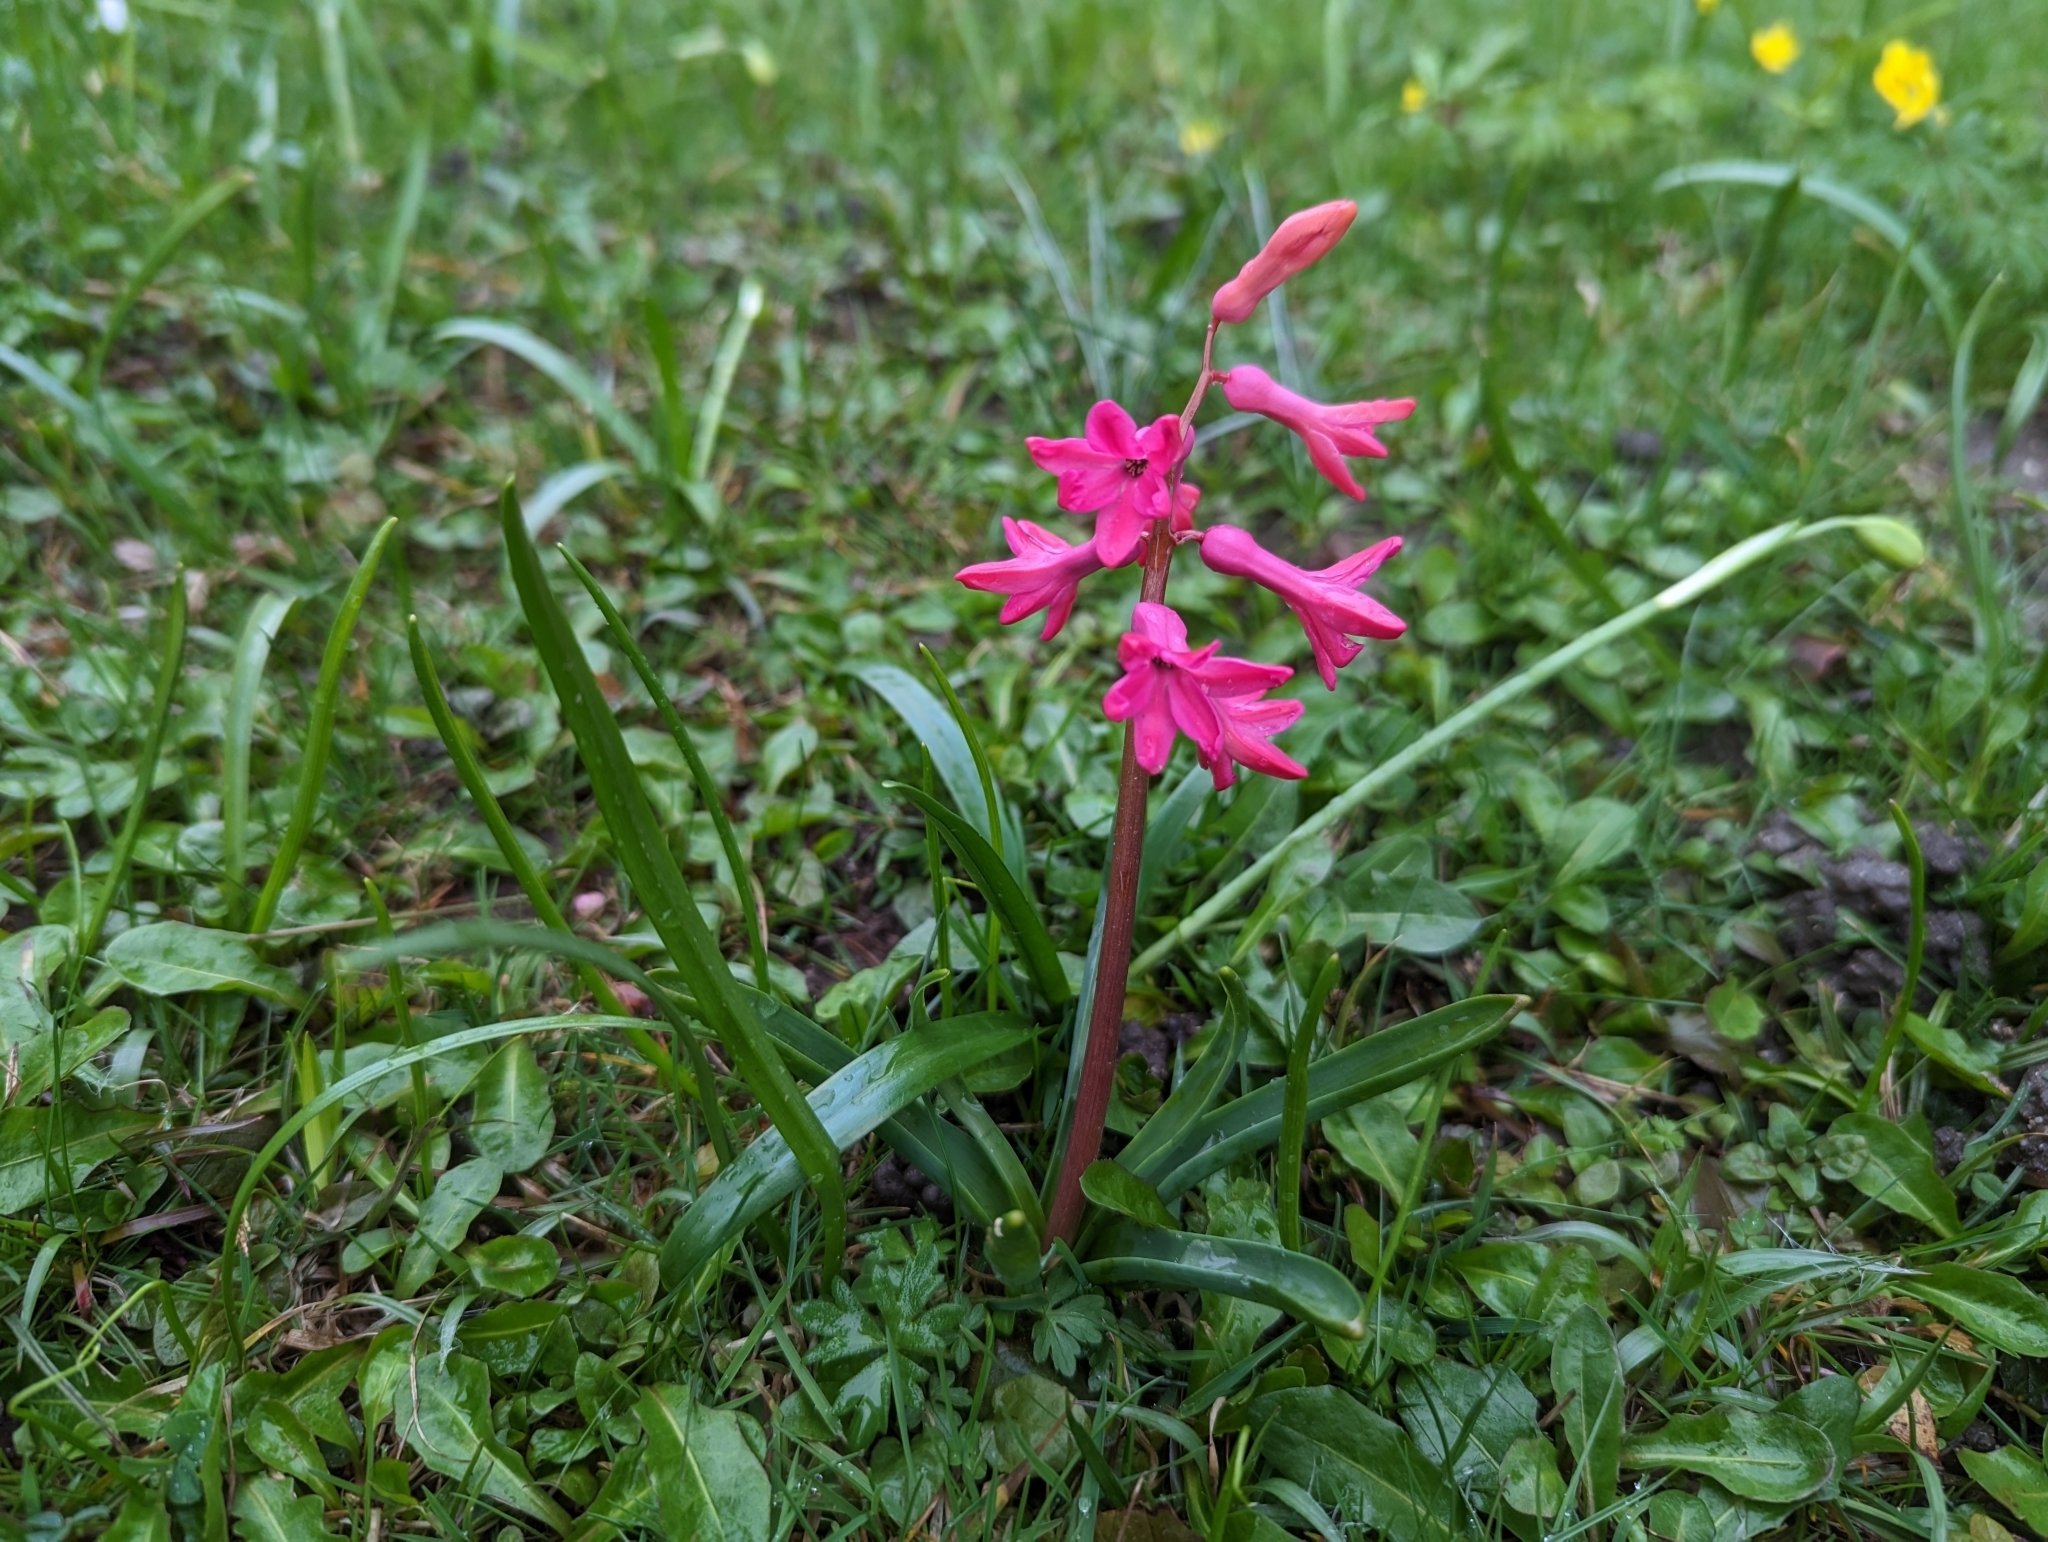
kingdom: Plantae
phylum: Tracheophyta
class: Liliopsida
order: Asparagales
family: Asparagaceae
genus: Hyacinthus
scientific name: Hyacinthus orientalis
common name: Hyacinth
